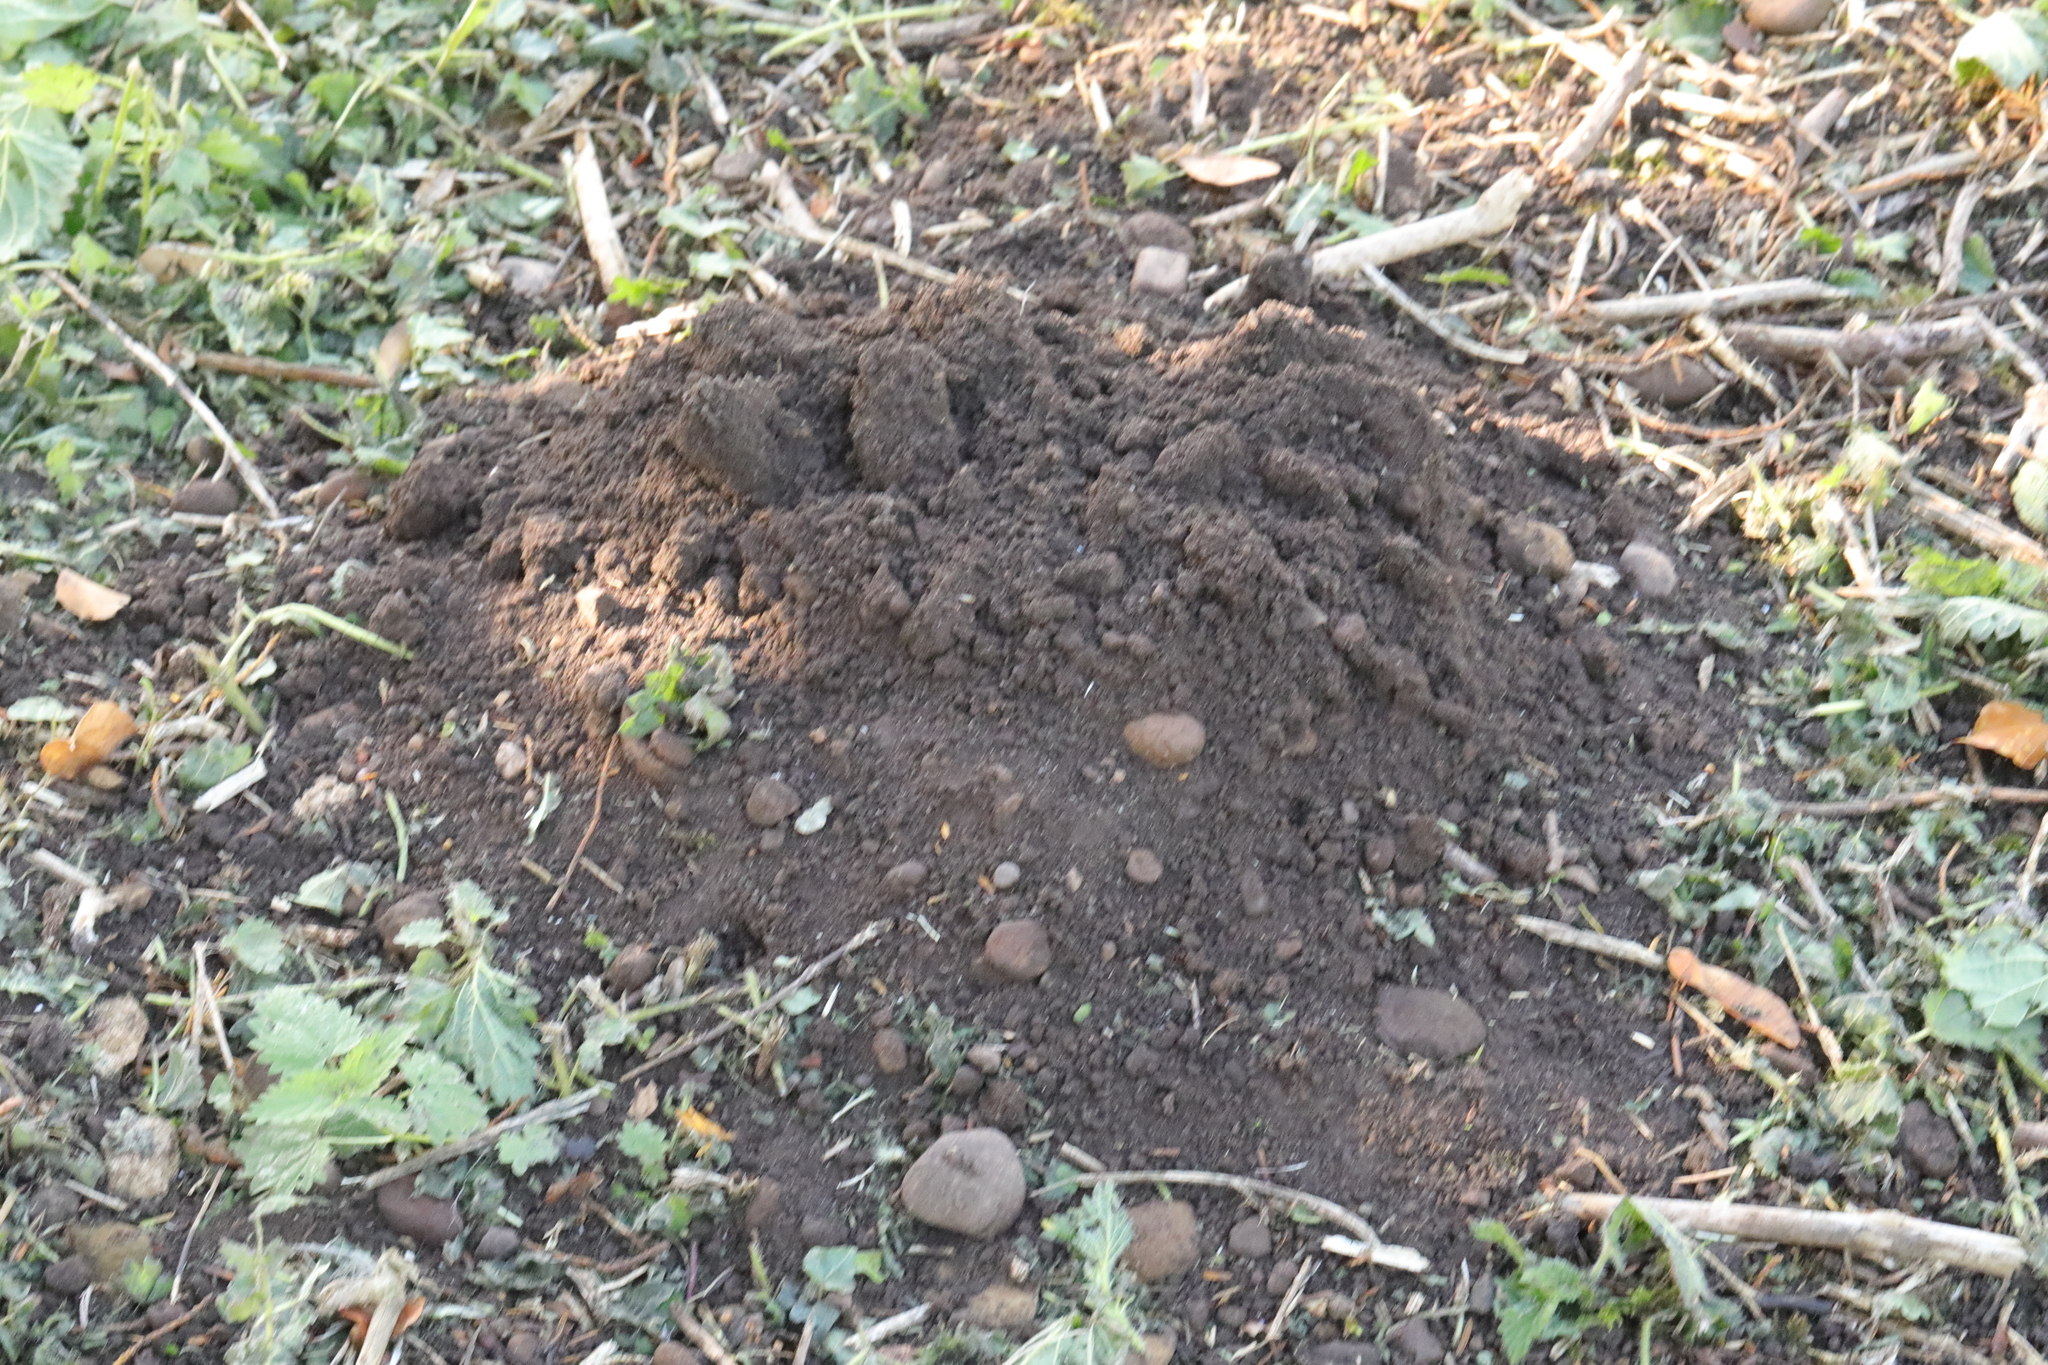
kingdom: Animalia
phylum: Chordata
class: Mammalia
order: Soricomorpha
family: Talpidae
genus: Talpa
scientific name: Talpa europaea
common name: European mole
